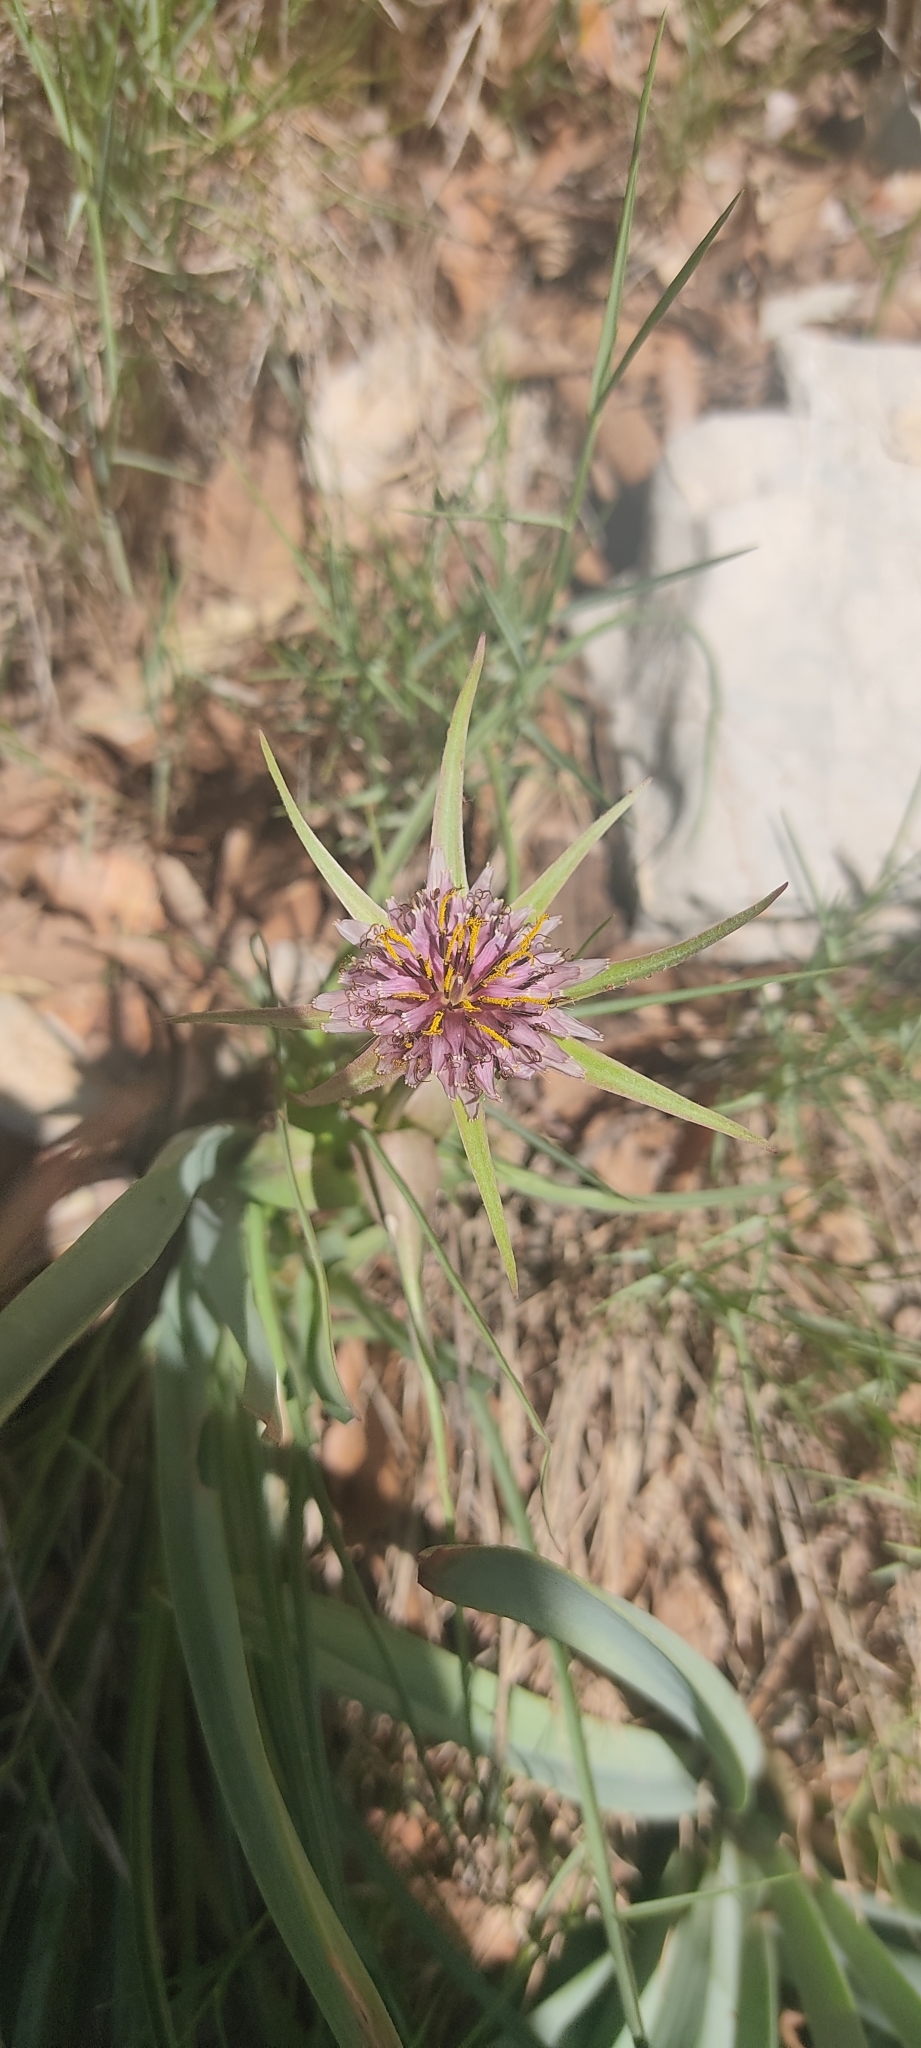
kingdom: Plantae
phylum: Tracheophyta
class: Magnoliopsida
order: Asterales
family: Asteraceae
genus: Tragopogon
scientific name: Tragopogon porrifolius
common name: Salsify
